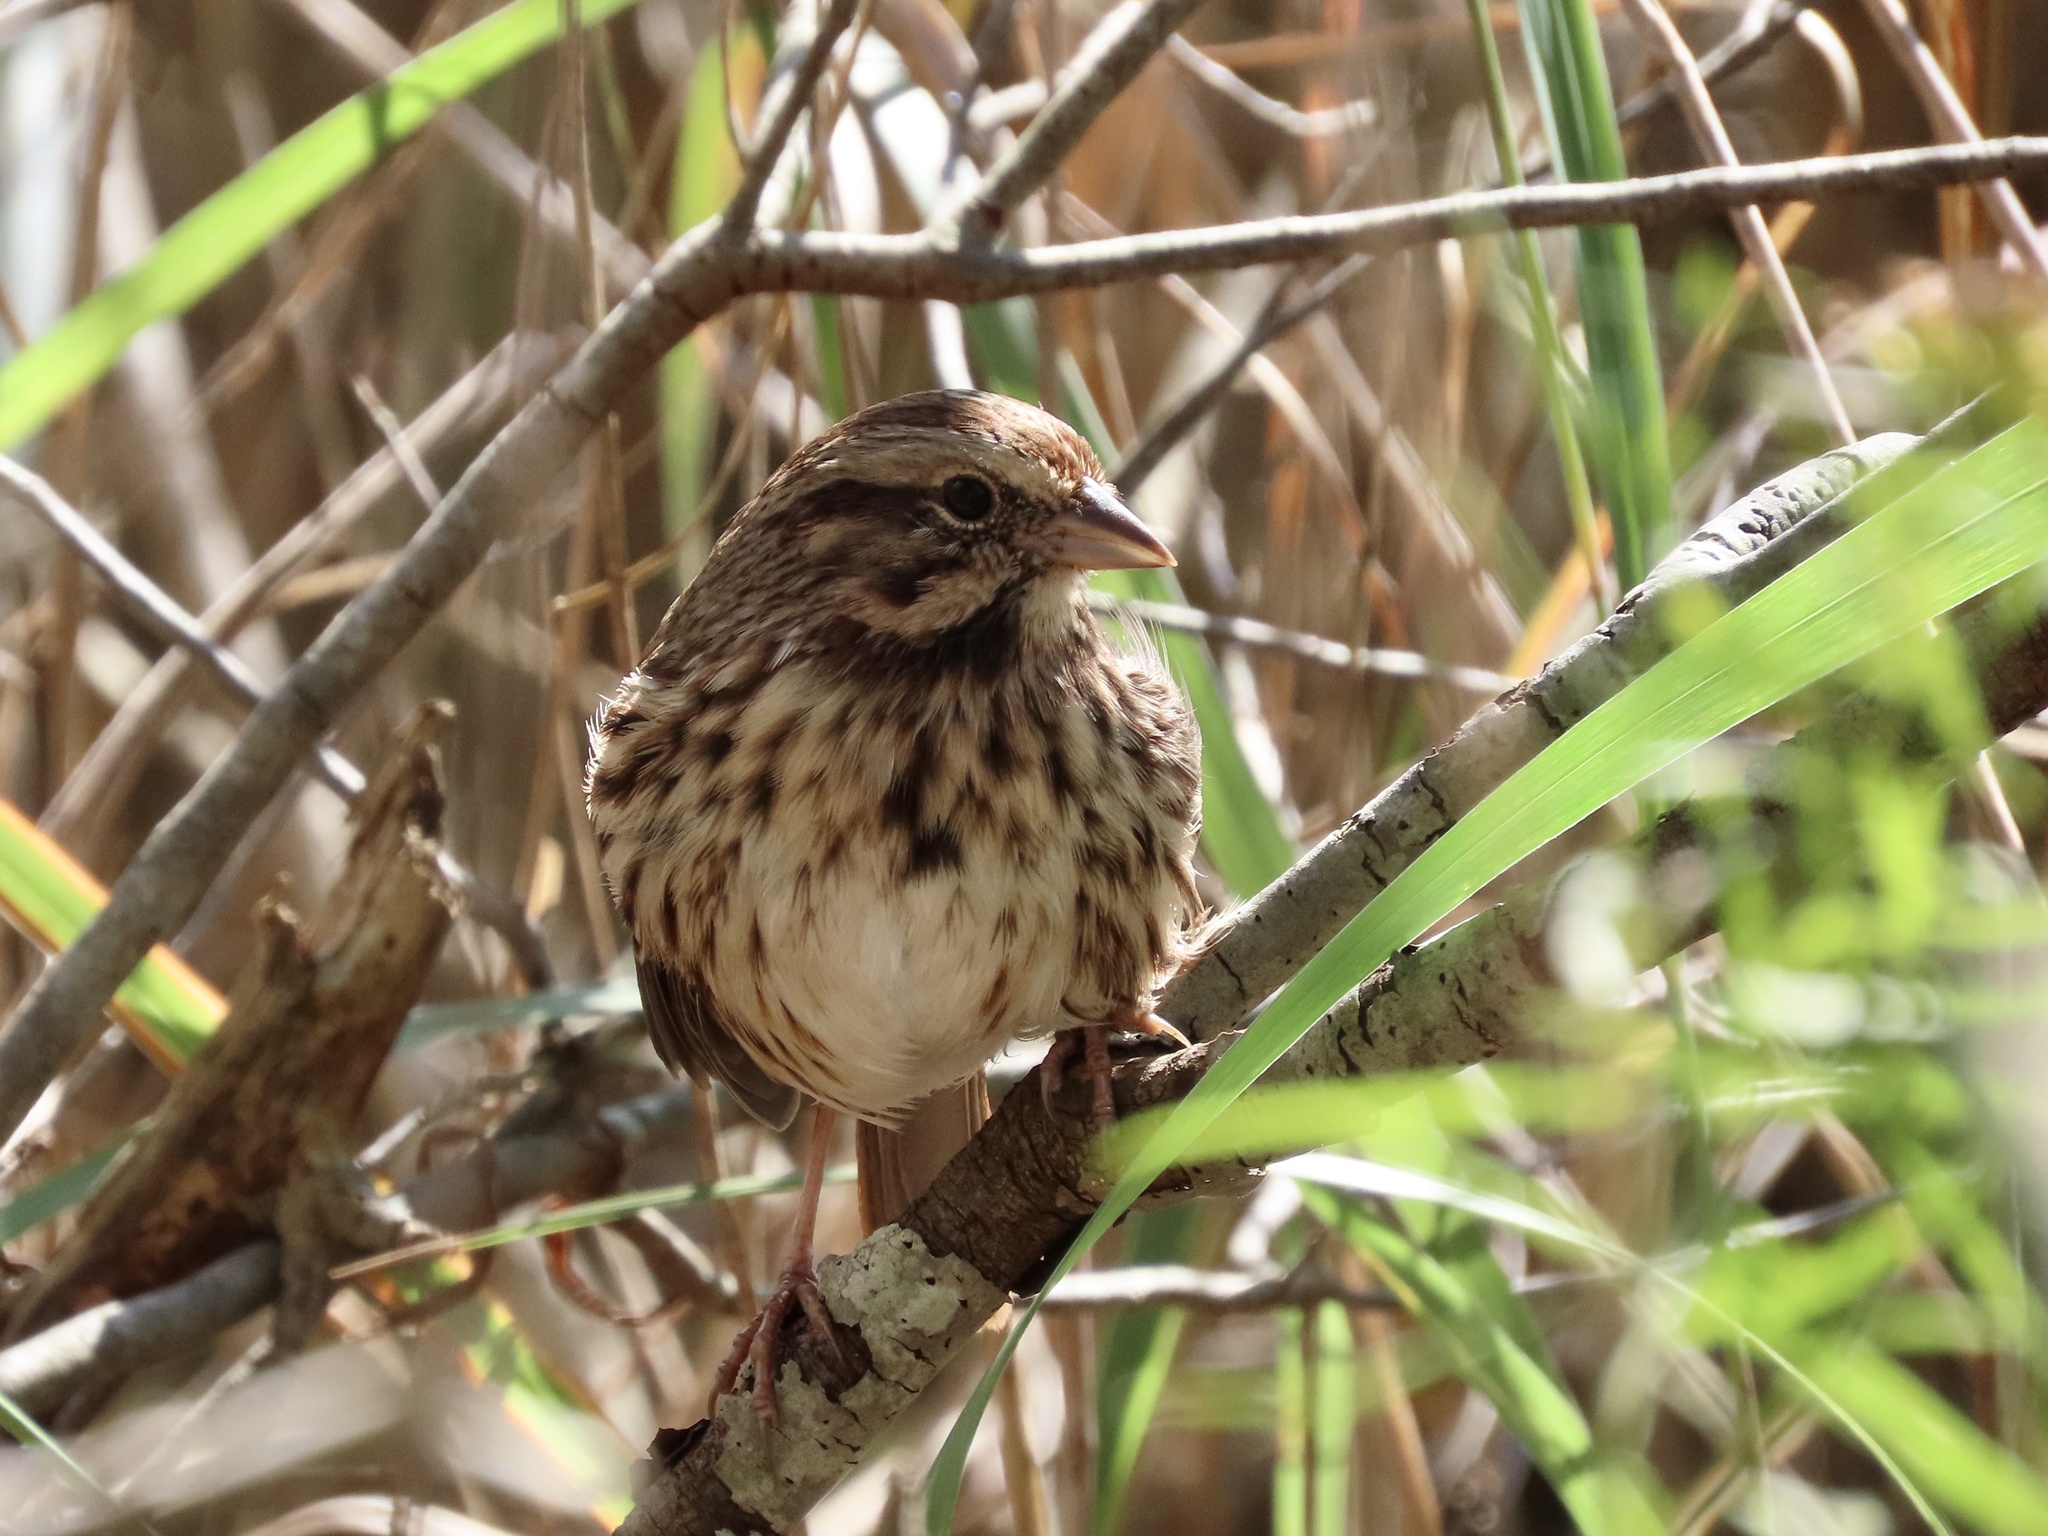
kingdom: Animalia
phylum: Chordata
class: Aves
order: Passeriformes
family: Passerellidae
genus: Melospiza
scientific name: Melospiza melodia
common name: Song sparrow
